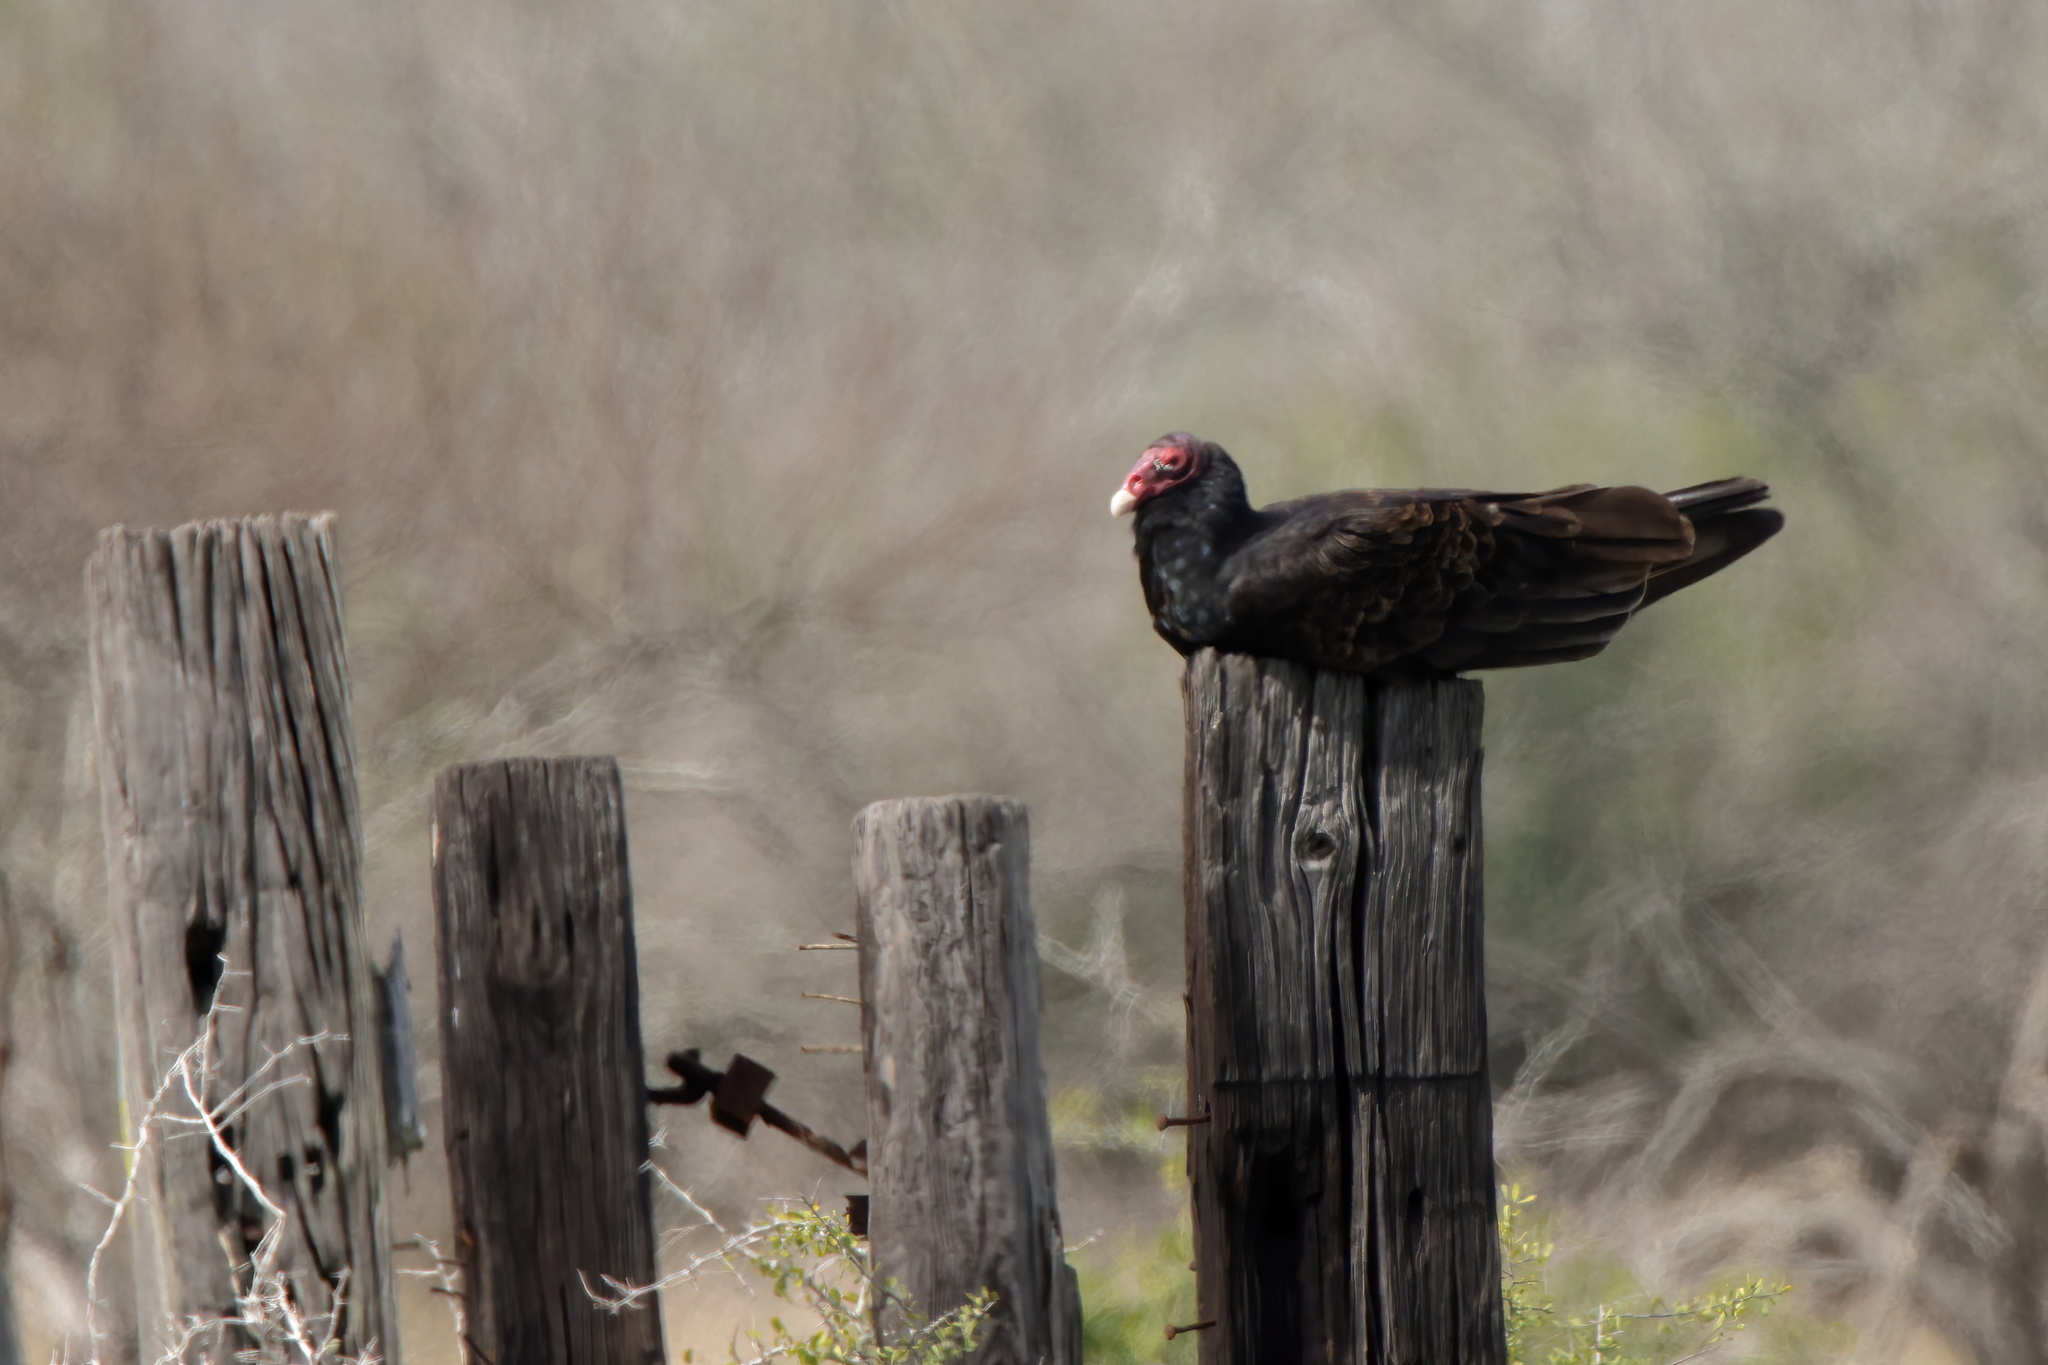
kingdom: Animalia
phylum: Chordata
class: Aves
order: Accipitriformes
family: Cathartidae
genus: Cathartes
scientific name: Cathartes aura
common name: Turkey vulture
